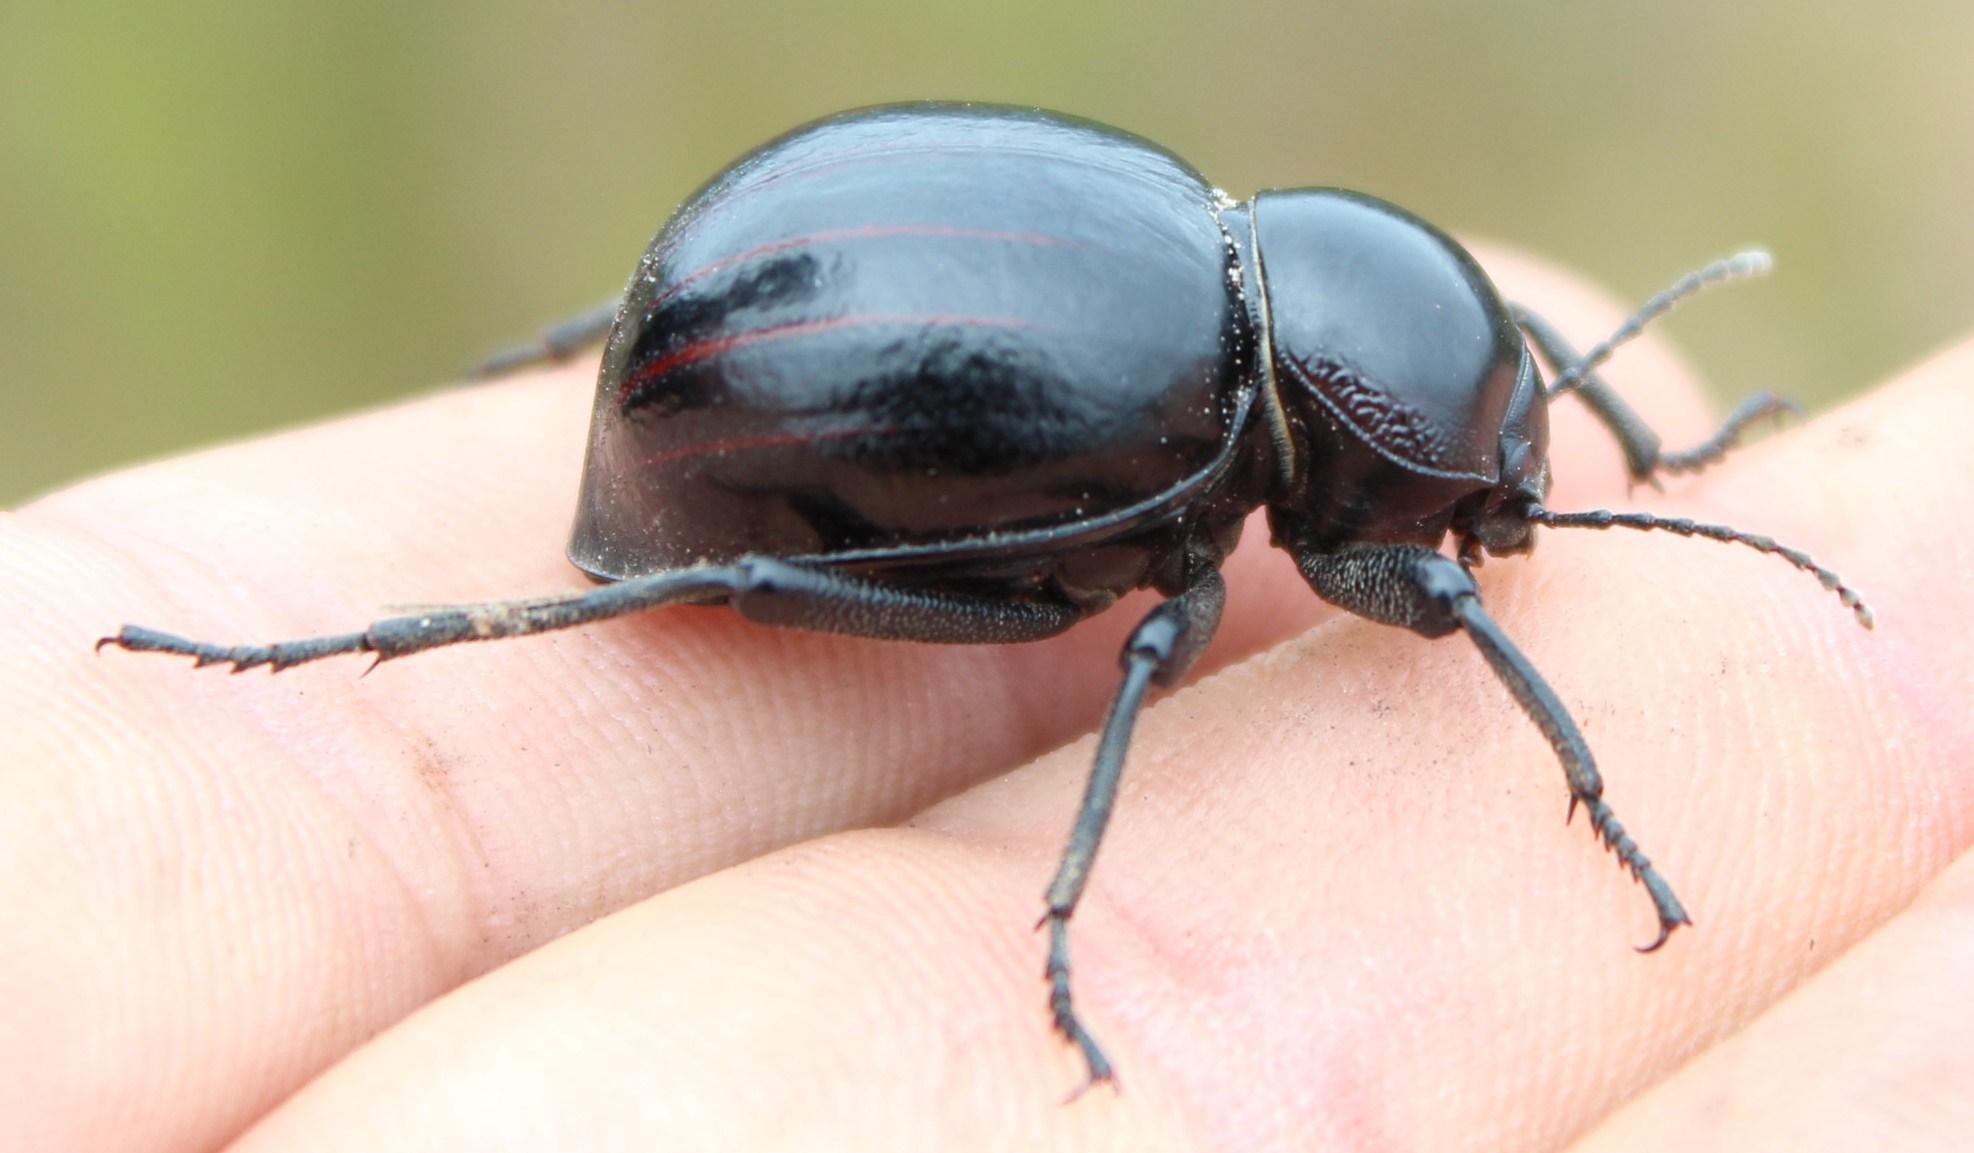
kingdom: Animalia
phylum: Arthropoda
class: Insecta
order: Coleoptera
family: Tenebrionidae
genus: Mariazofia
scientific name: Mariazofia
